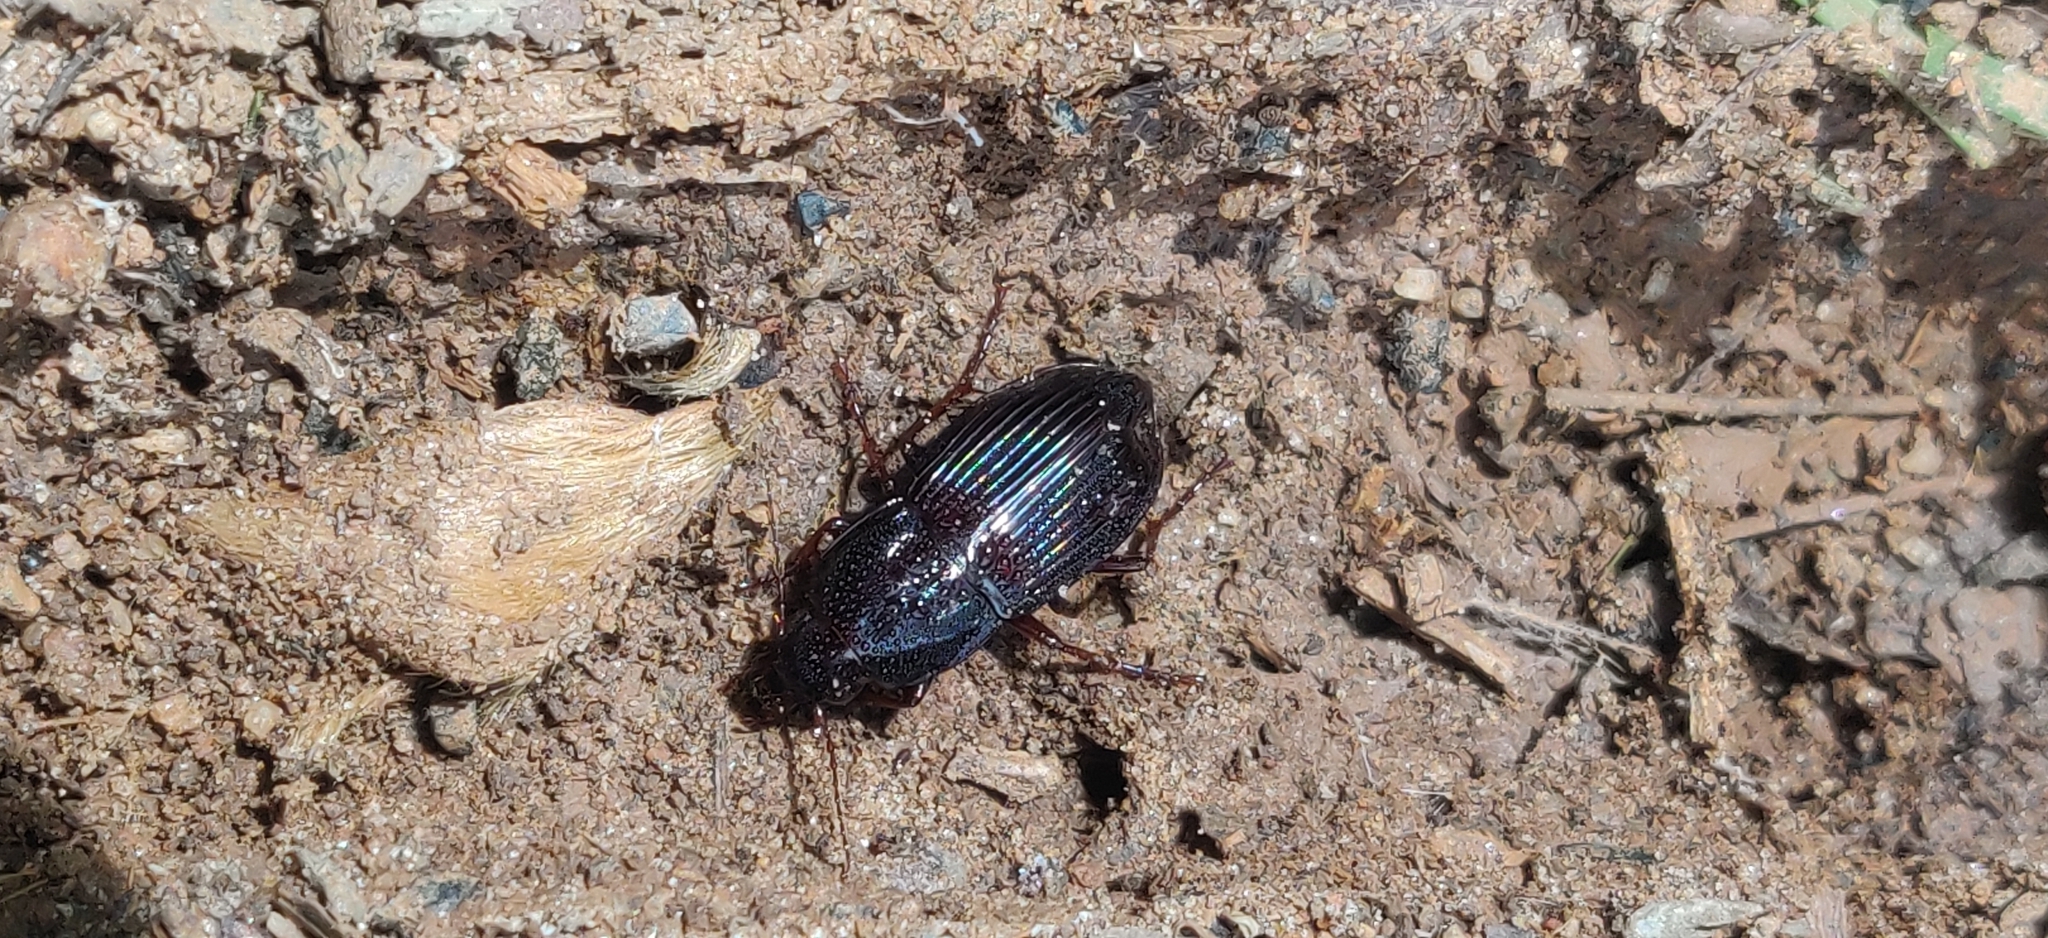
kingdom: Animalia
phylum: Arthropoda
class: Insecta
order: Coleoptera
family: Carabidae
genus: Abacidus
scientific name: Abacidus
